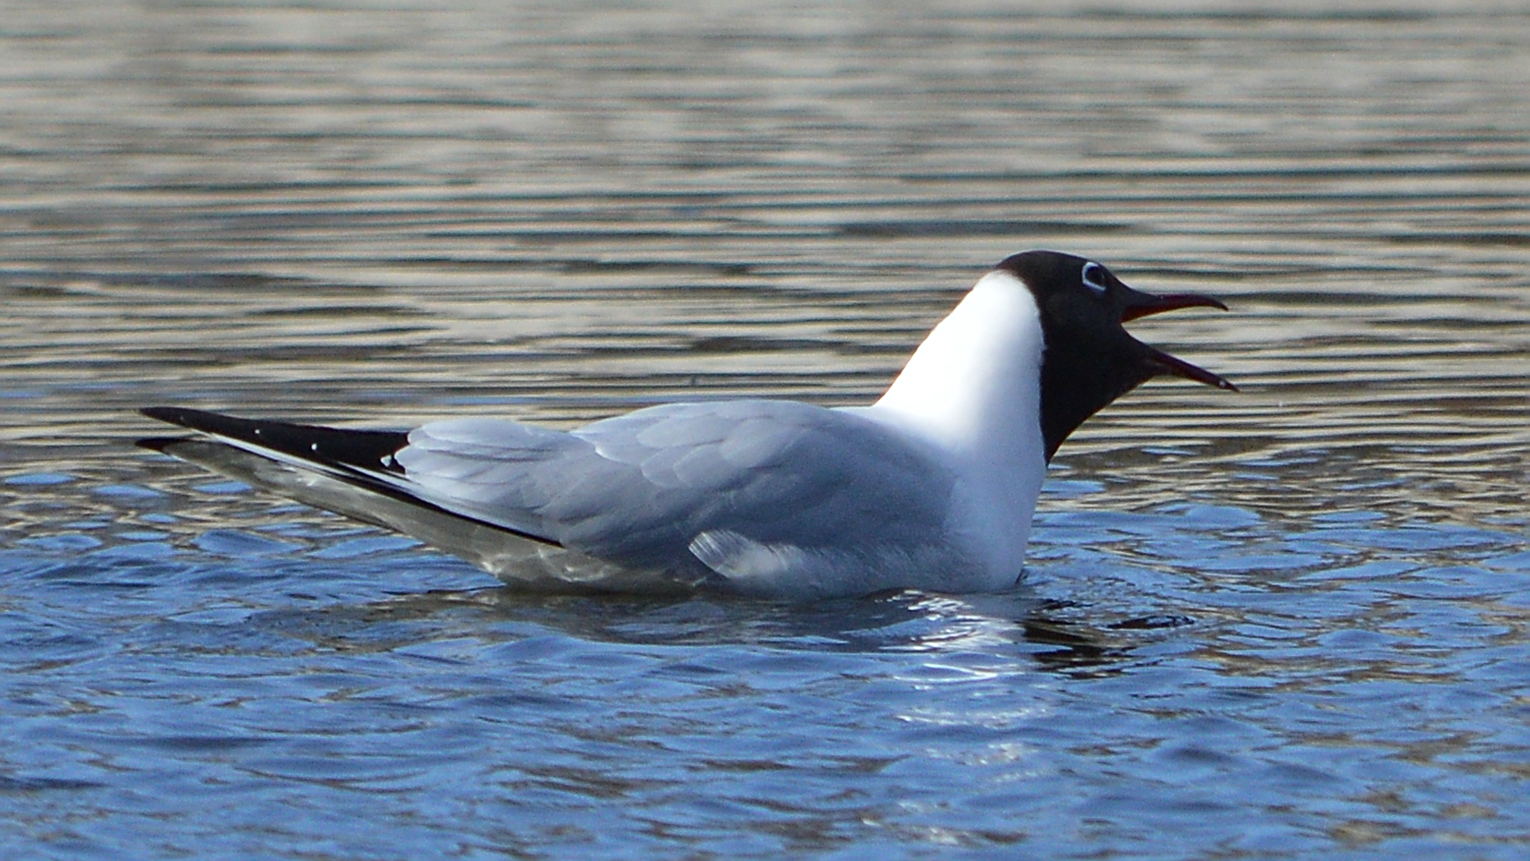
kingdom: Animalia
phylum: Chordata
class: Aves
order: Charadriiformes
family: Laridae
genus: Chroicocephalus
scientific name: Chroicocephalus ridibundus
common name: Black-headed gull
